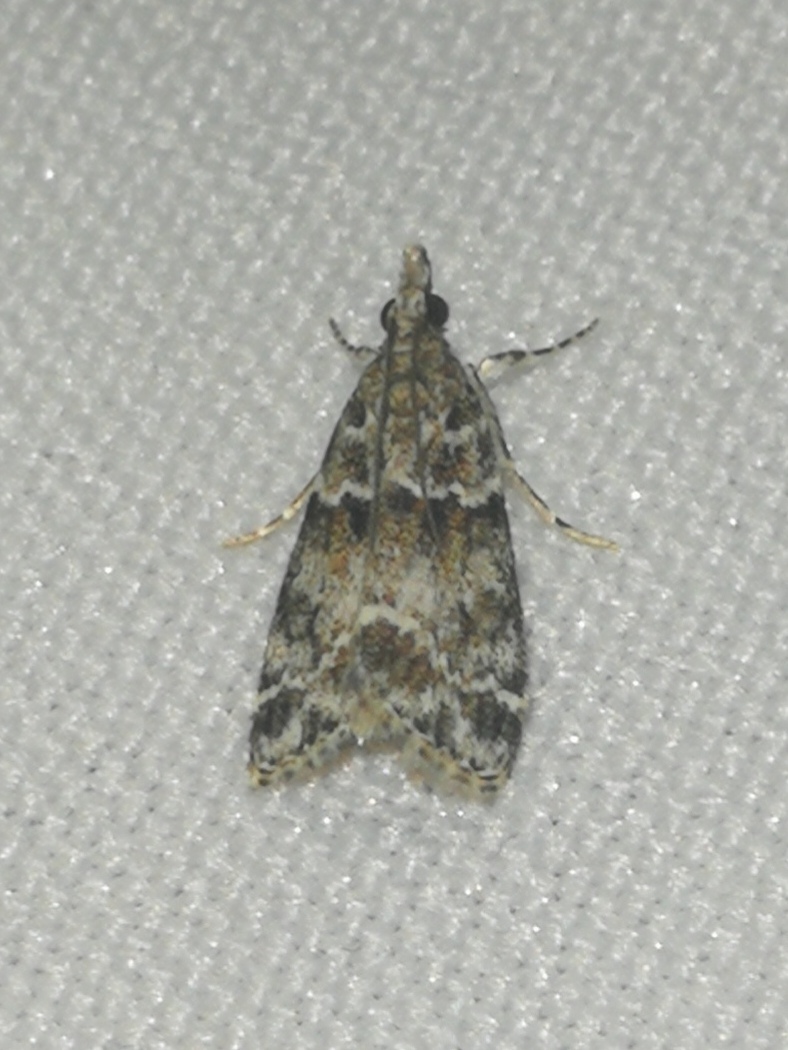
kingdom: Animalia
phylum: Arthropoda
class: Insecta
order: Lepidoptera
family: Crambidae
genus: Eudonia
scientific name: Eudonia mercurella
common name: Small grey
